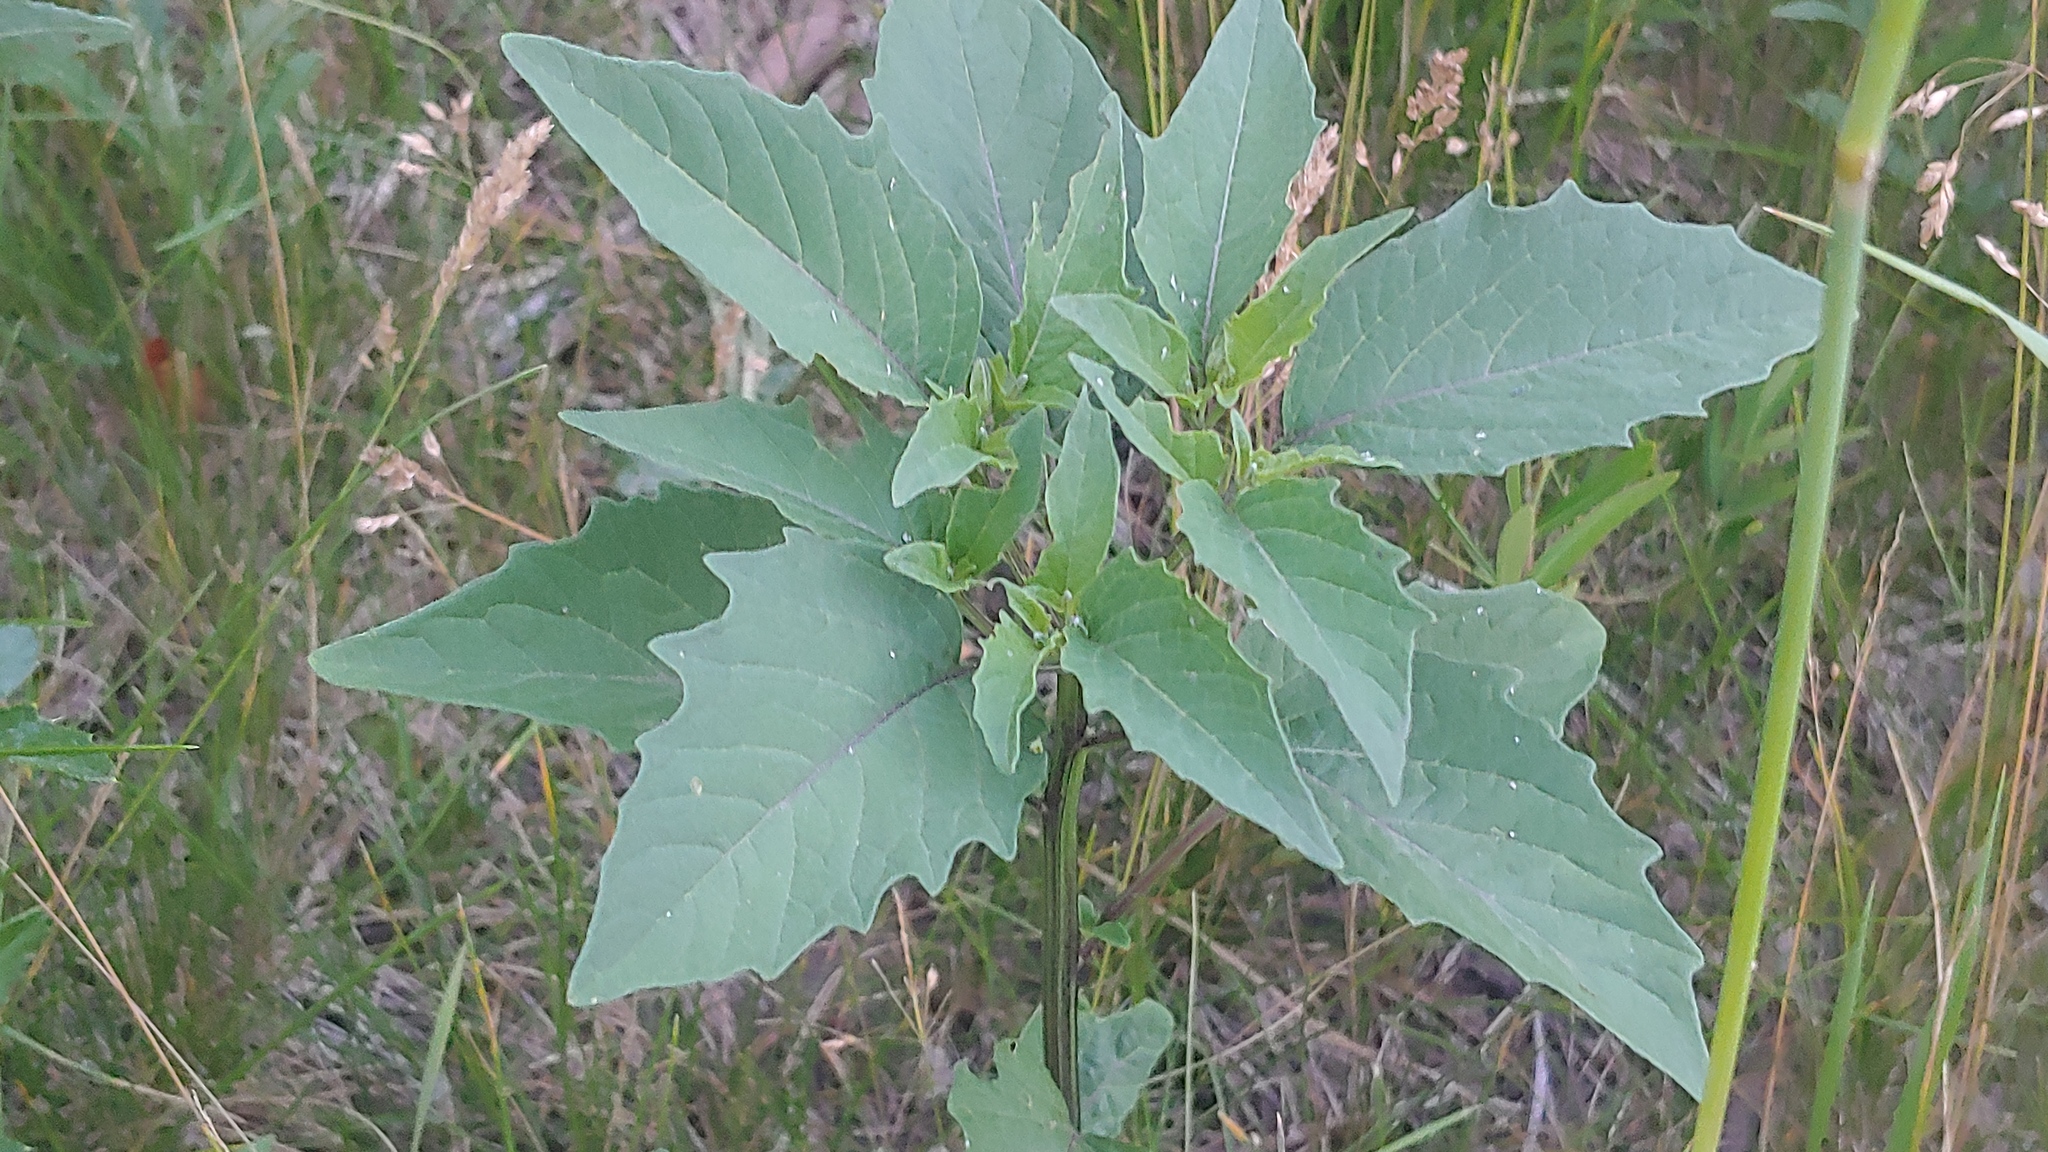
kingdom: Plantae
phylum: Tracheophyta
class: Magnoliopsida
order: Solanales
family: Solanaceae
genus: Physalis
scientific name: Physalis longifolia
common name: Common ground-cherry
